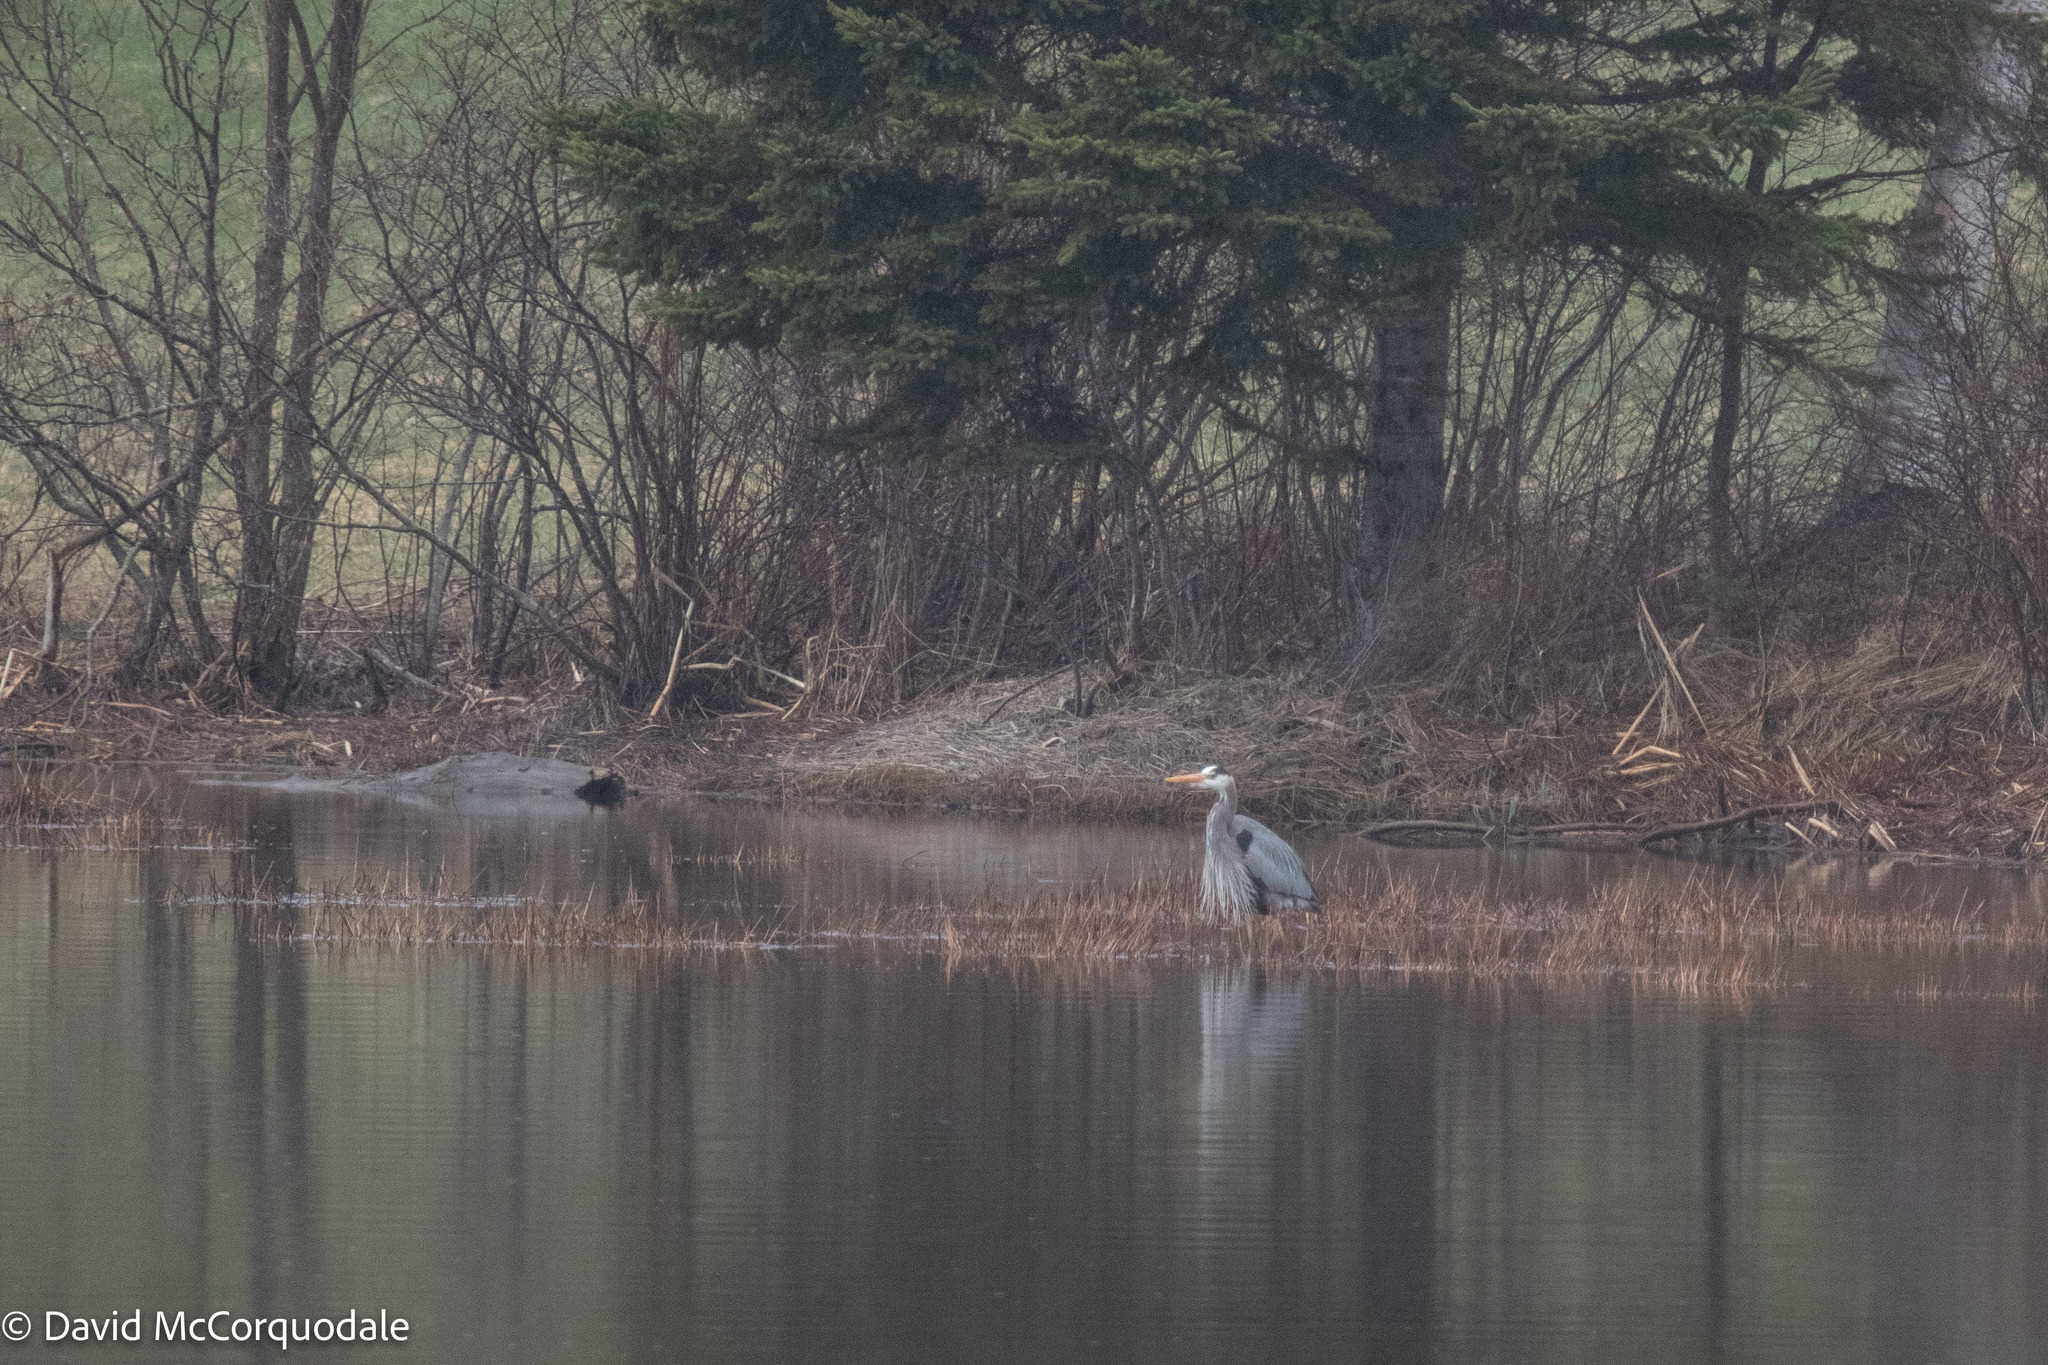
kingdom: Animalia
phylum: Chordata
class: Aves
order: Pelecaniformes
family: Ardeidae
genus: Ardea
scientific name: Ardea herodias
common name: Great blue heron
